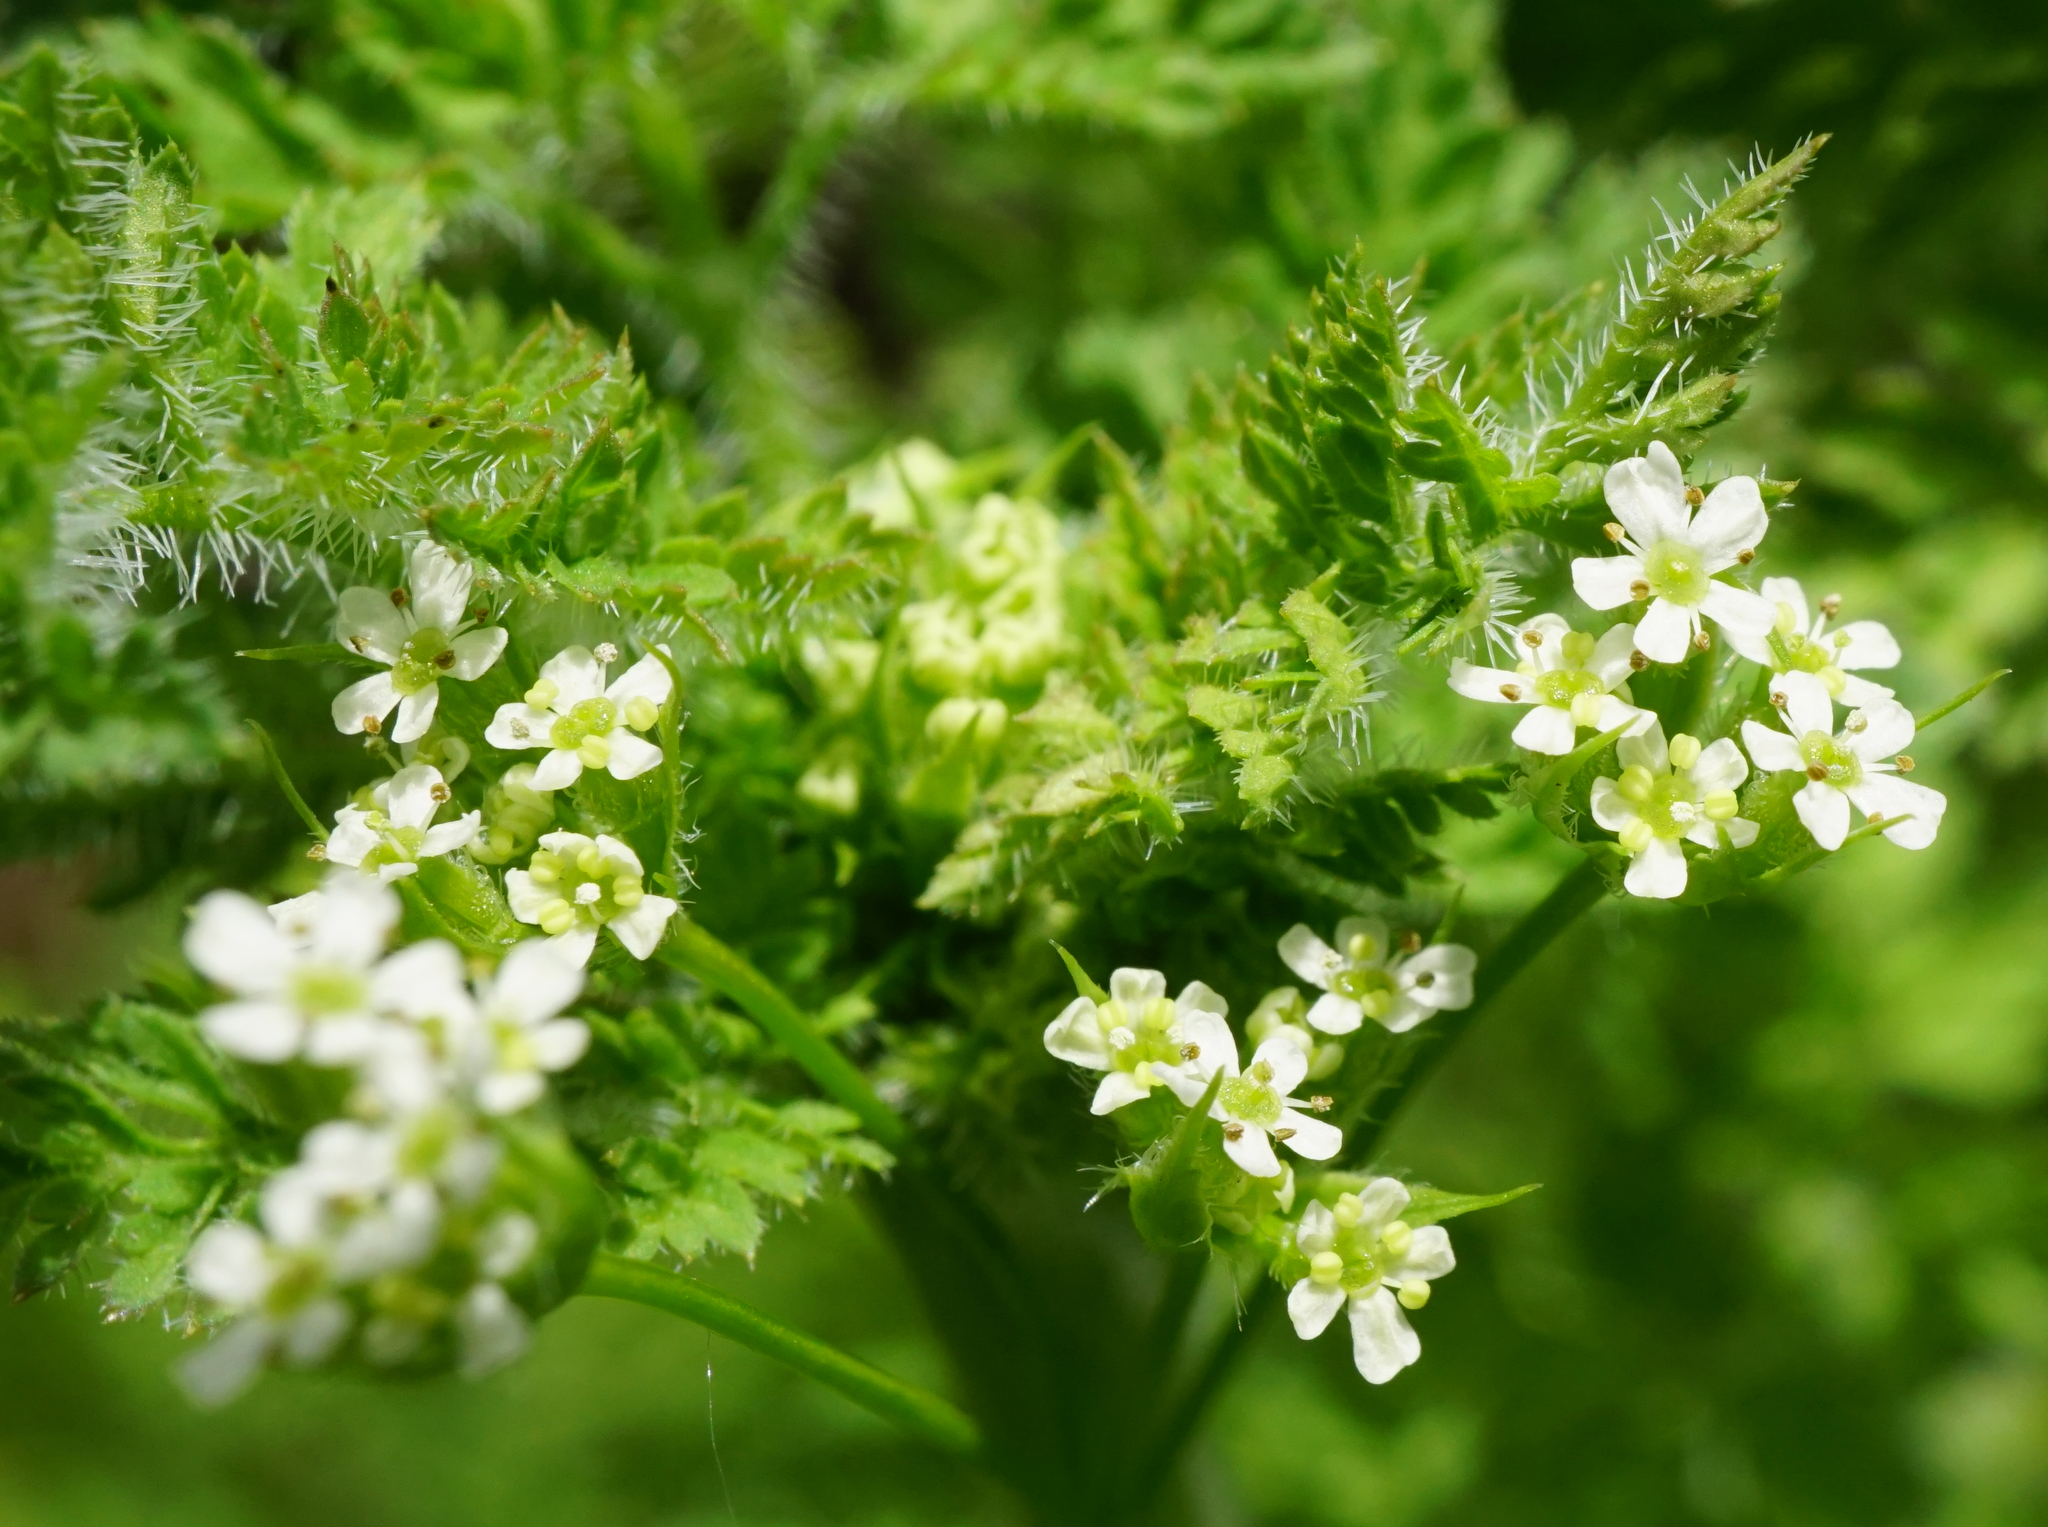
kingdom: Plantae
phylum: Tracheophyta
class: Magnoliopsida
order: Apiales
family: Apiaceae
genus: Anthriscus
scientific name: Anthriscus caucalis
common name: Bur chervil
